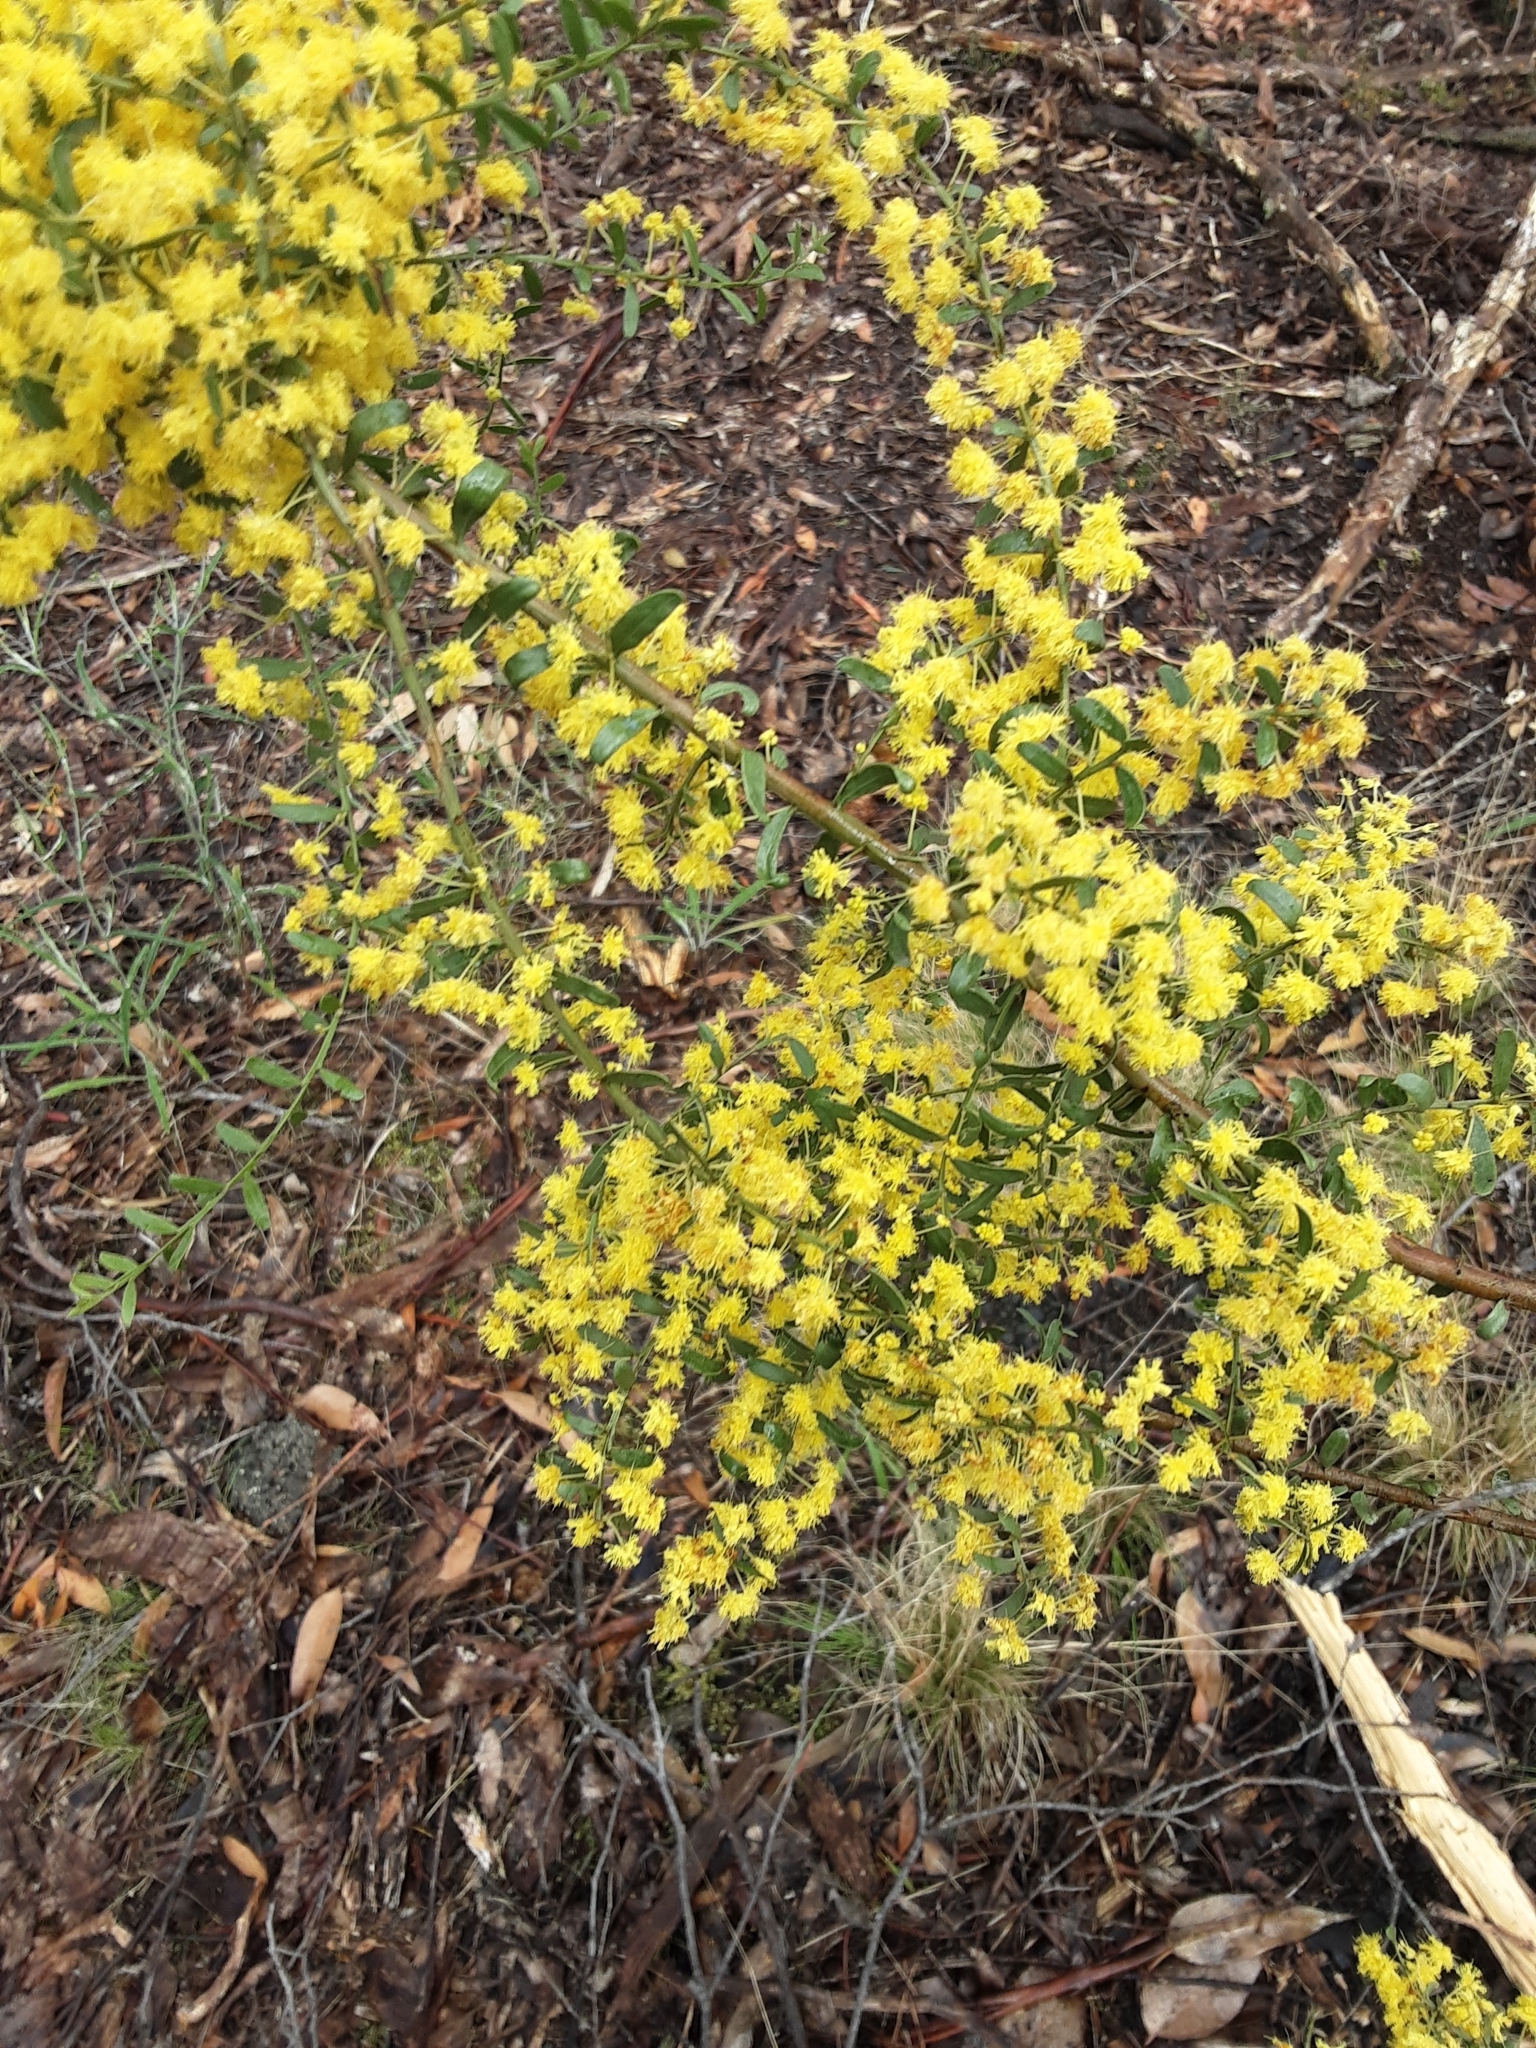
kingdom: Plantae
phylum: Tracheophyta
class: Magnoliopsida
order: Fabales
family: Fabaceae
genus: Acacia
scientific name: Acacia acinacea
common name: Gold-dust acacia
